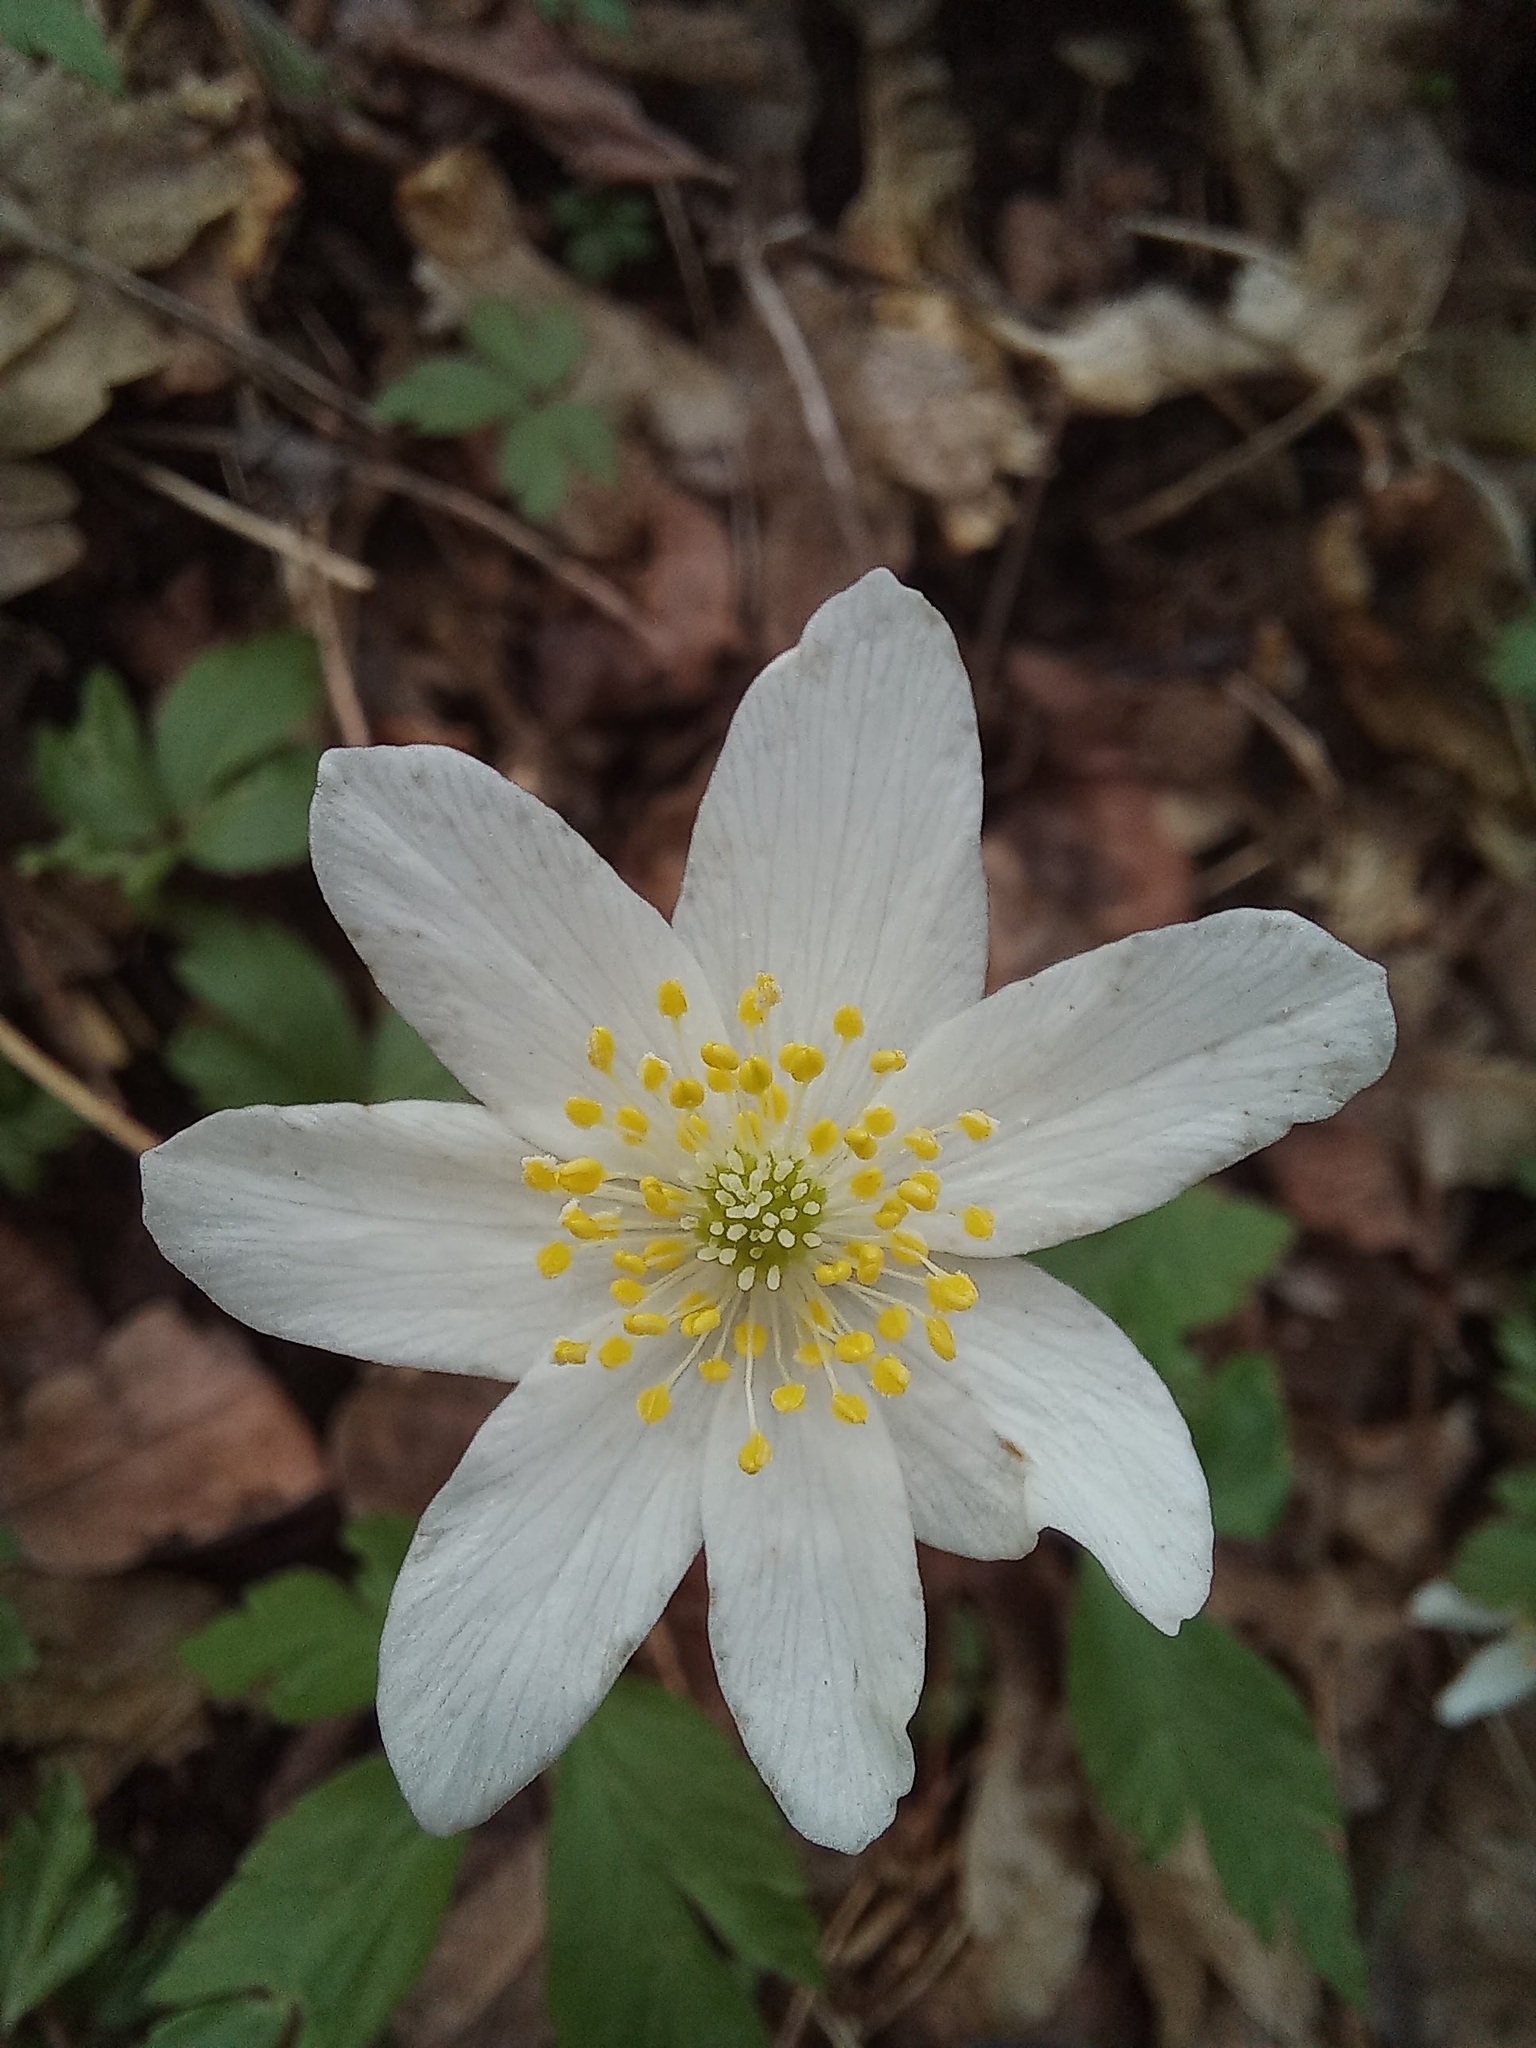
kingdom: Plantae
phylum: Tracheophyta
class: Magnoliopsida
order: Ranunculales
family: Ranunculaceae
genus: Anemone
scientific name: Anemone nemorosa
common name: Wood anemone
